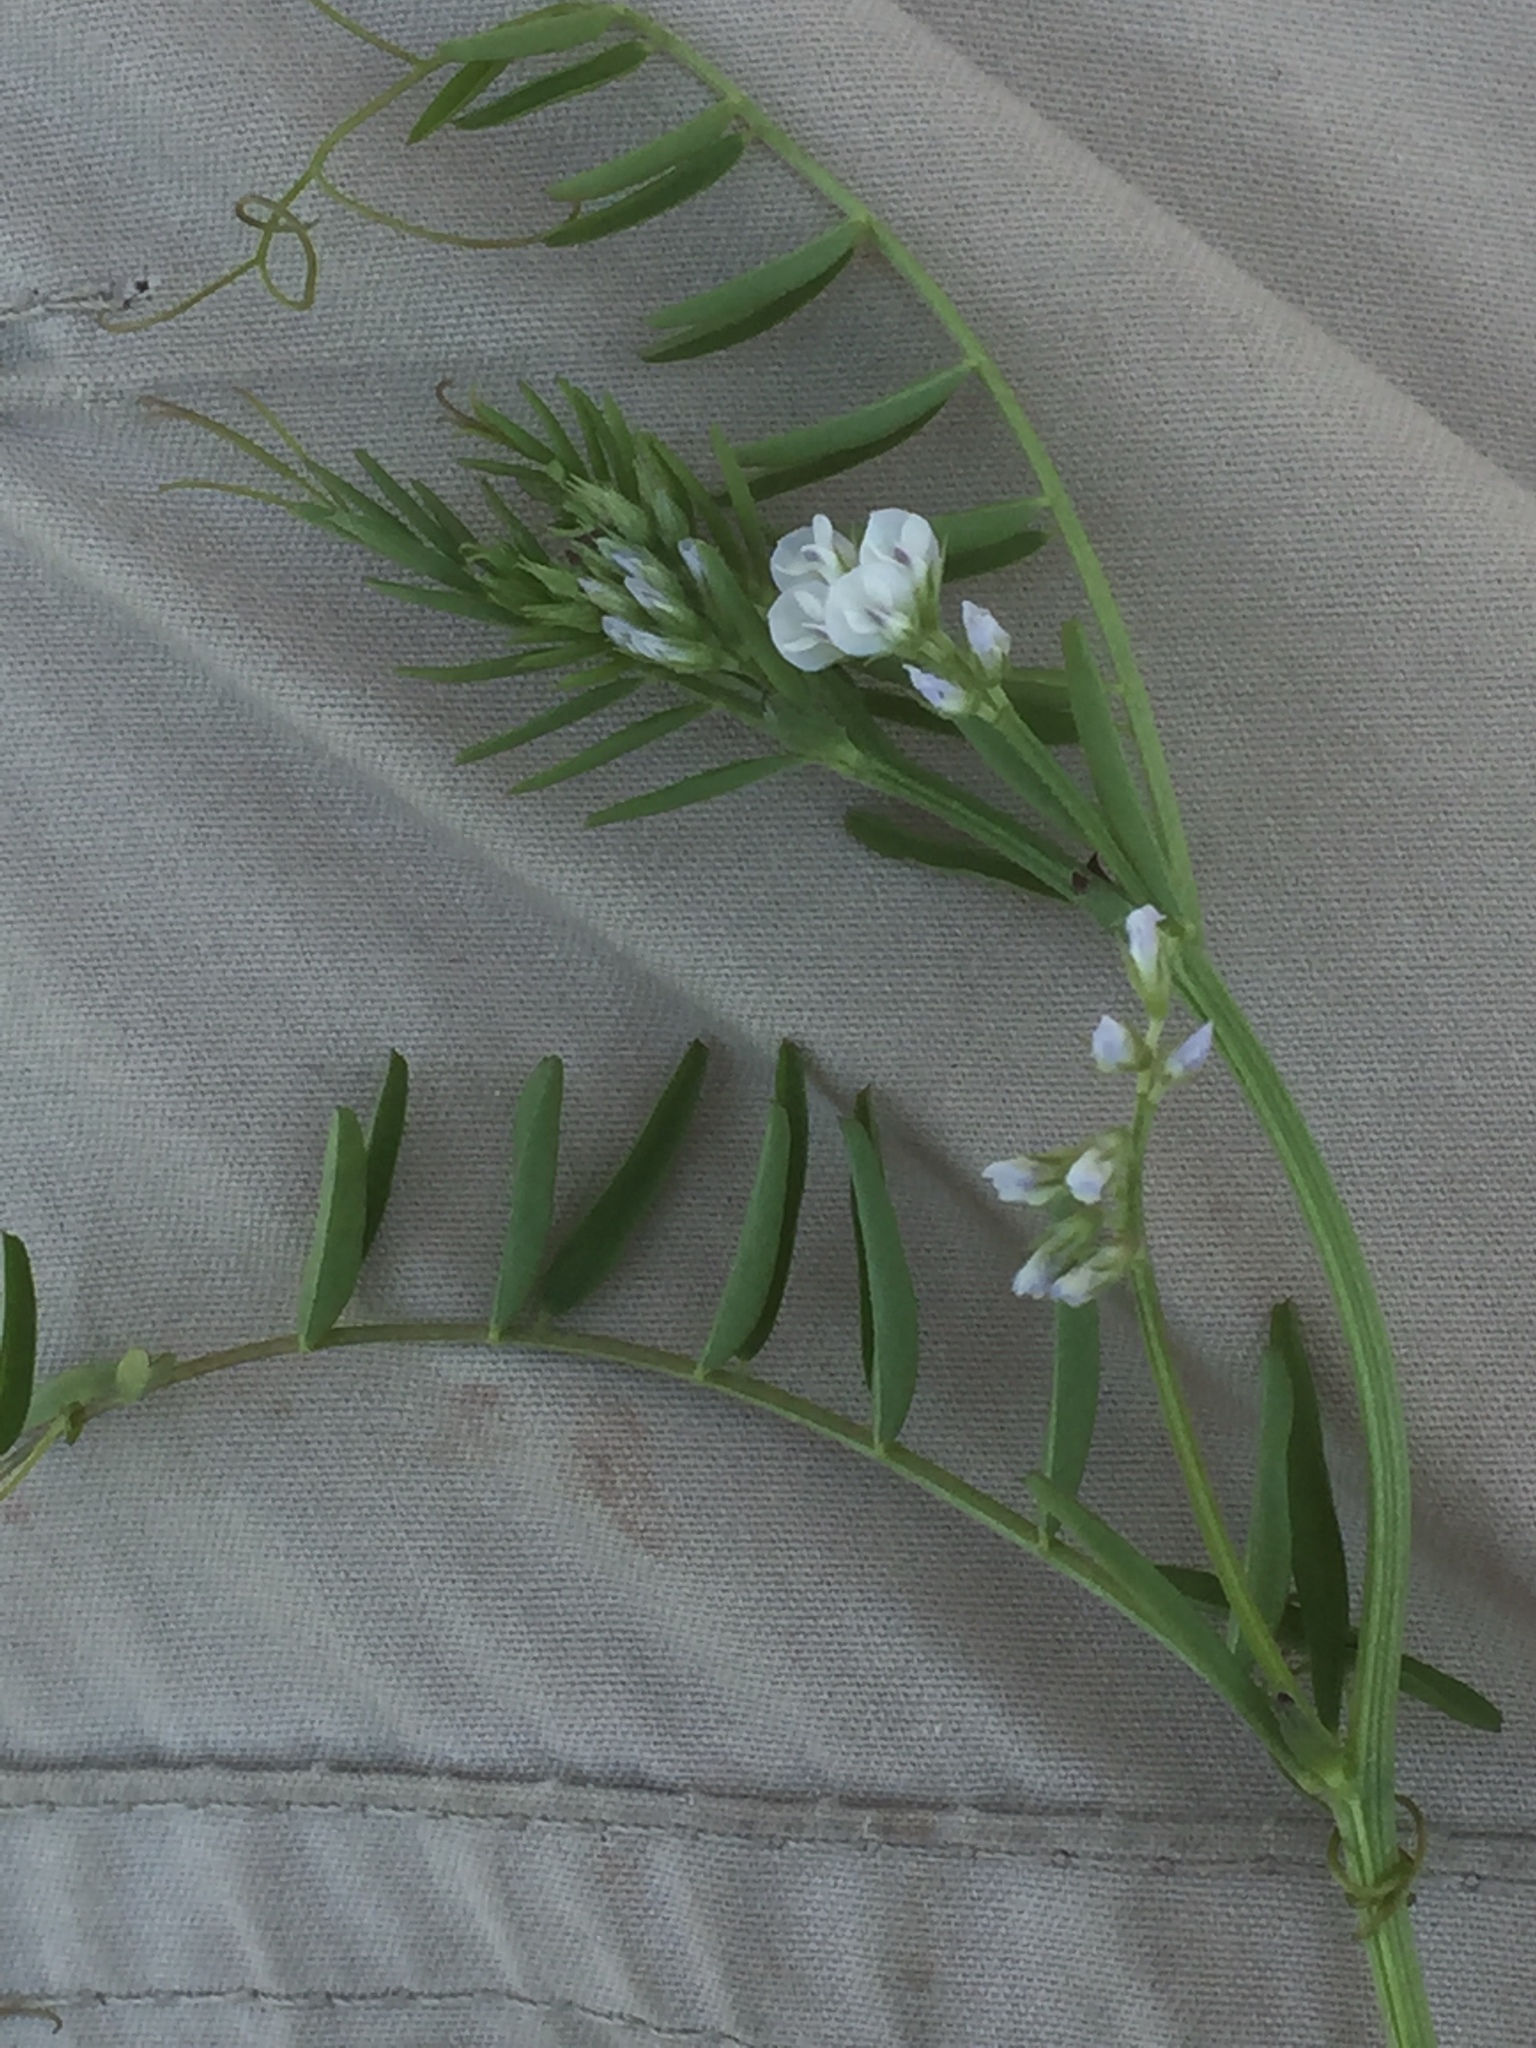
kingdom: Plantae
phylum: Tracheophyta
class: Magnoliopsida
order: Fabales
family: Fabaceae
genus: Vicia
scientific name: Vicia hirsuta
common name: Tiny vetch
